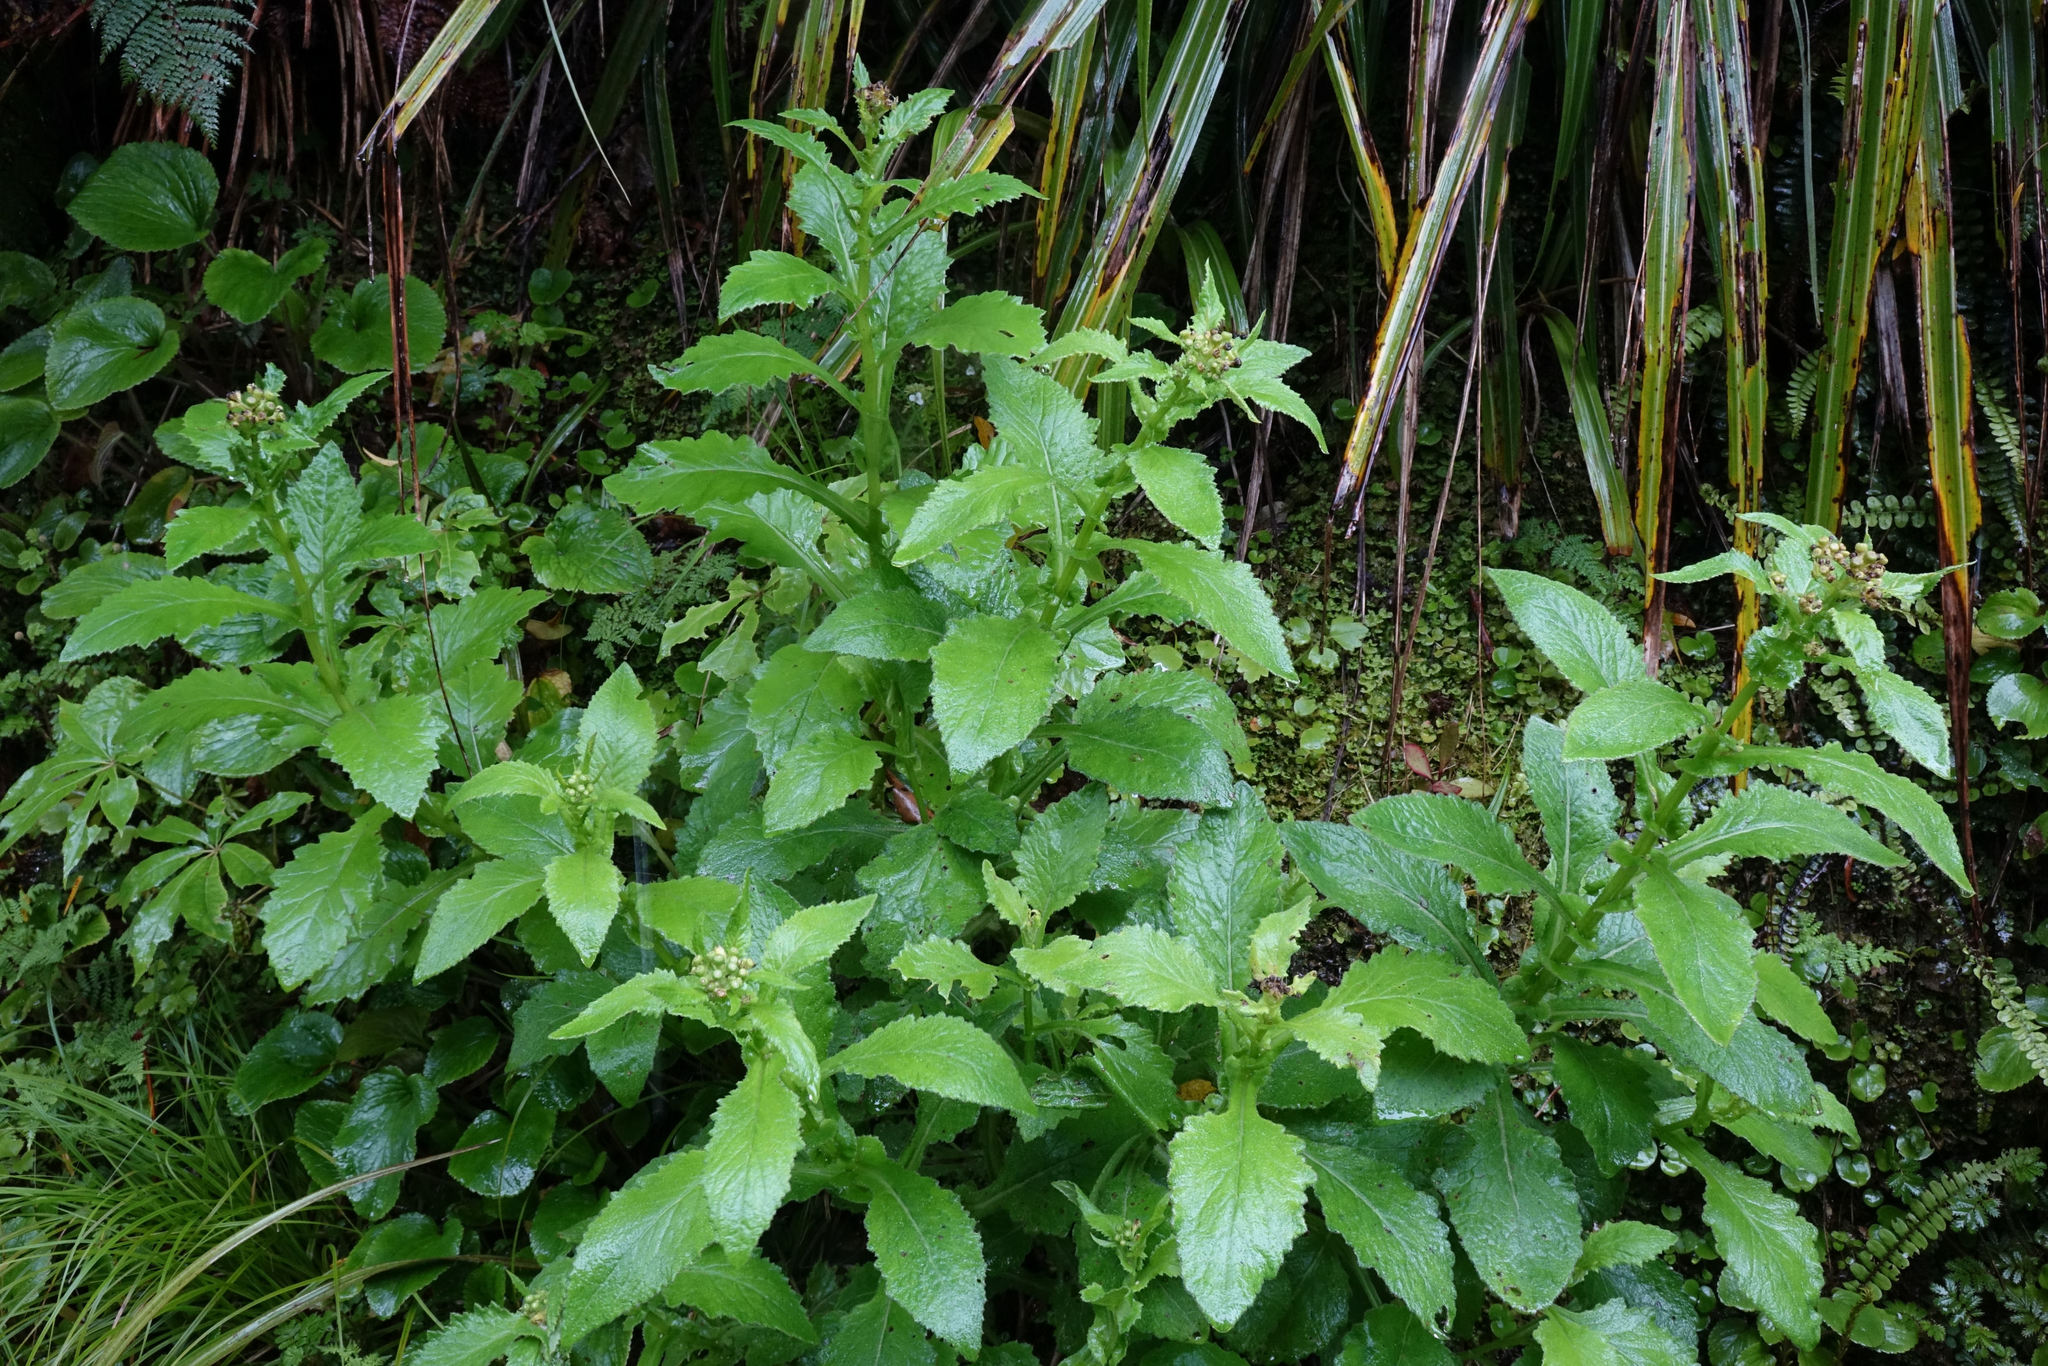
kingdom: Plantae
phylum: Tracheophyta
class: Magnoliopsida
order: Asterales
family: Asteraceae
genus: Senecio
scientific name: Senecio rufiglandulosus
